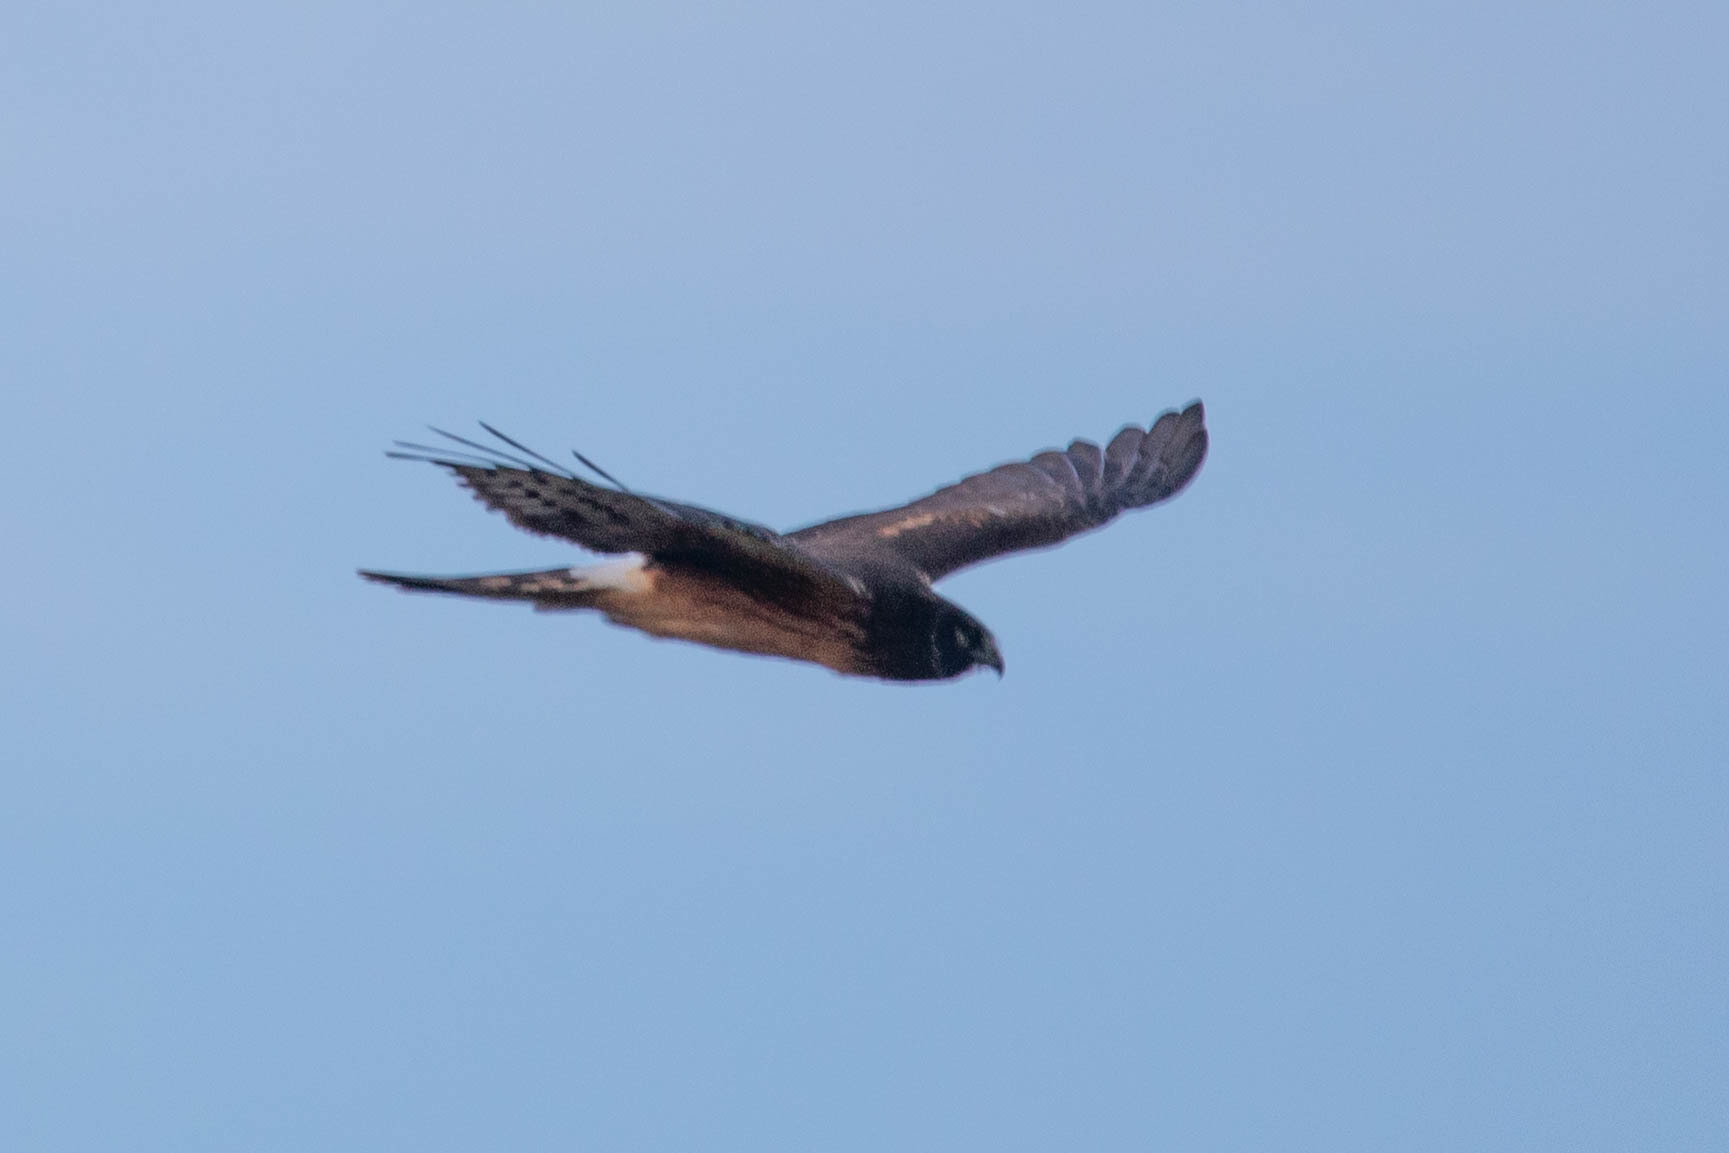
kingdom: Animalia
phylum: Chordata
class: Aves
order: Accipitriformes
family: Accipitridae
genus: Circus
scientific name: Circus cyaneus
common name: Hen harrier
